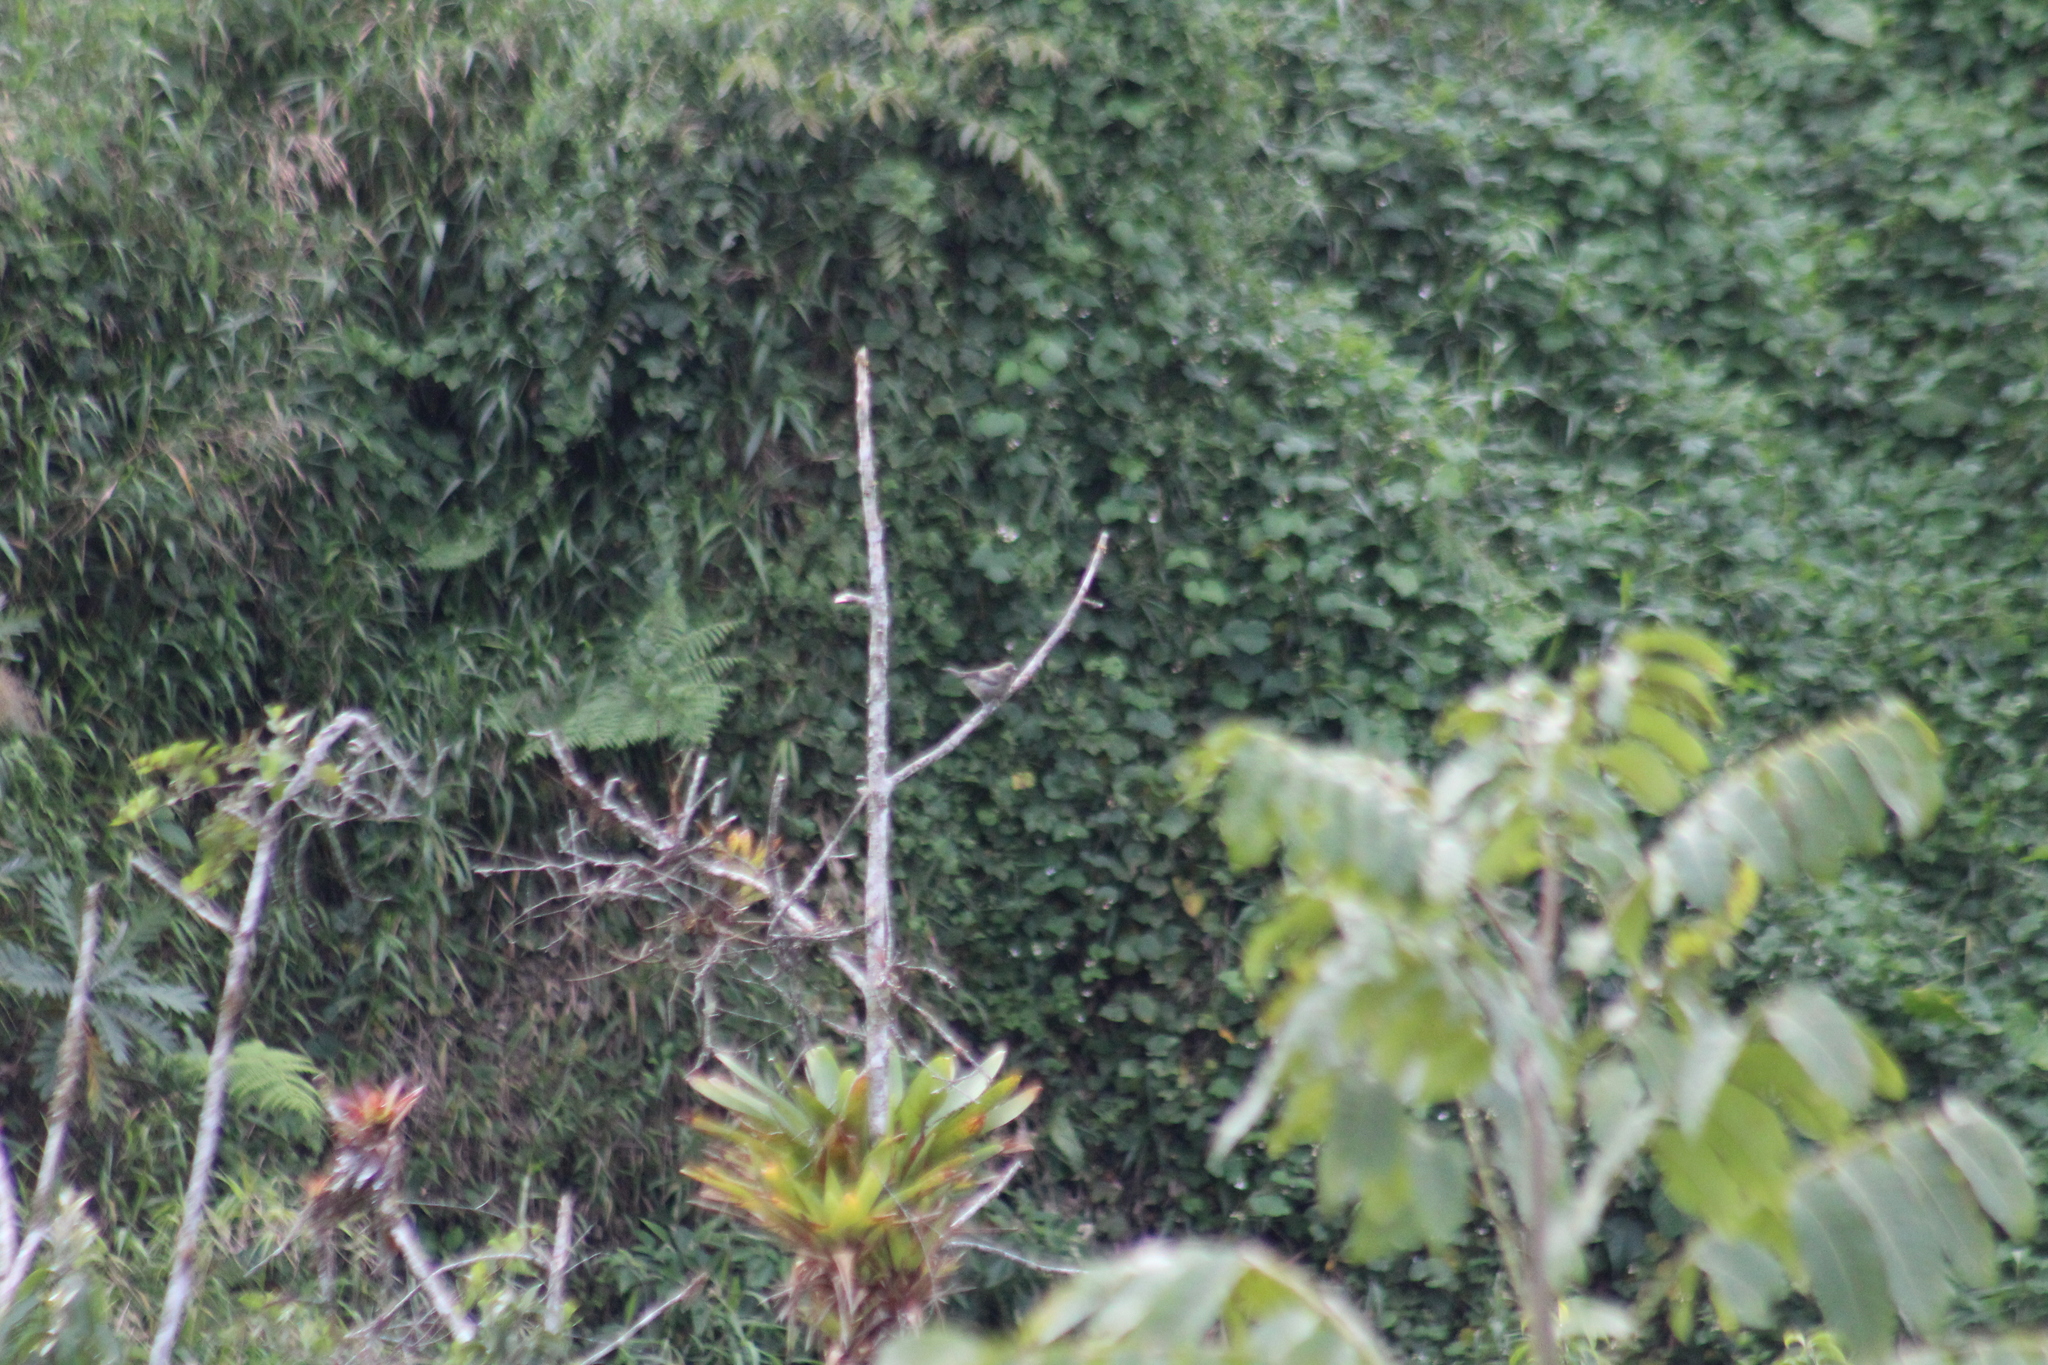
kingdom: Animalia
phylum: Chordata
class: Aves
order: Passeriformes
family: Thraupidae
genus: Thraupis
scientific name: Thraupis palmarum
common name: Palm tanager
